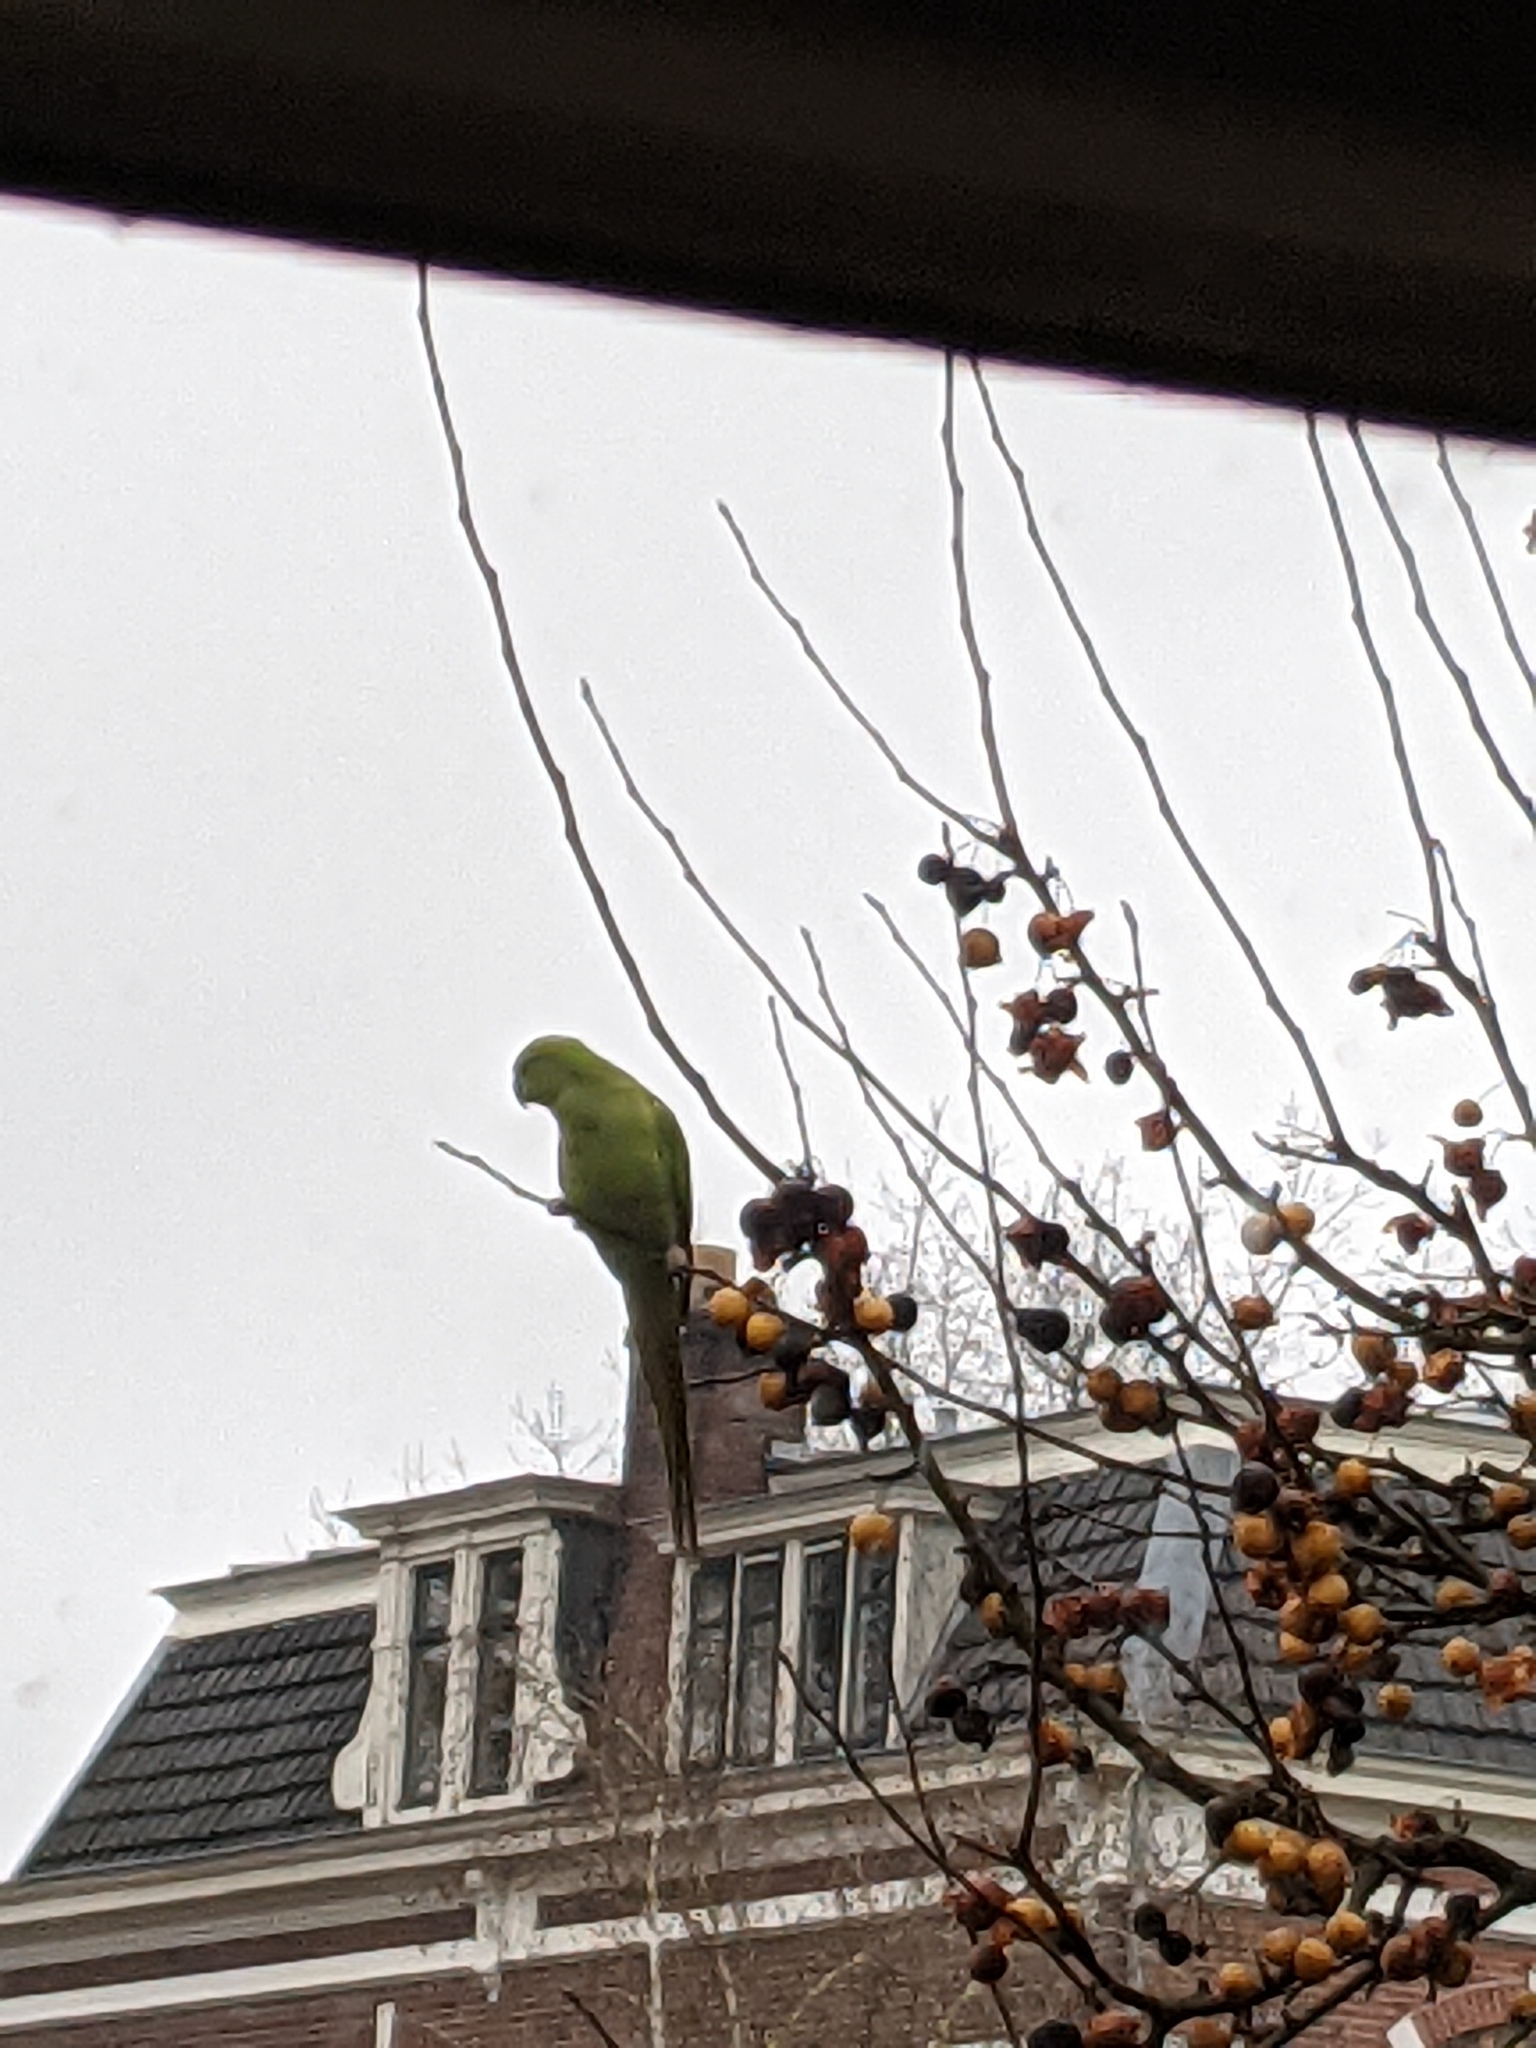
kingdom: Animalia
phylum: Chordata
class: Aves
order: Psittaciformes
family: Psittacidae
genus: Psittacula
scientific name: Psittacula krameri
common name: Rose-ringed parakeet
